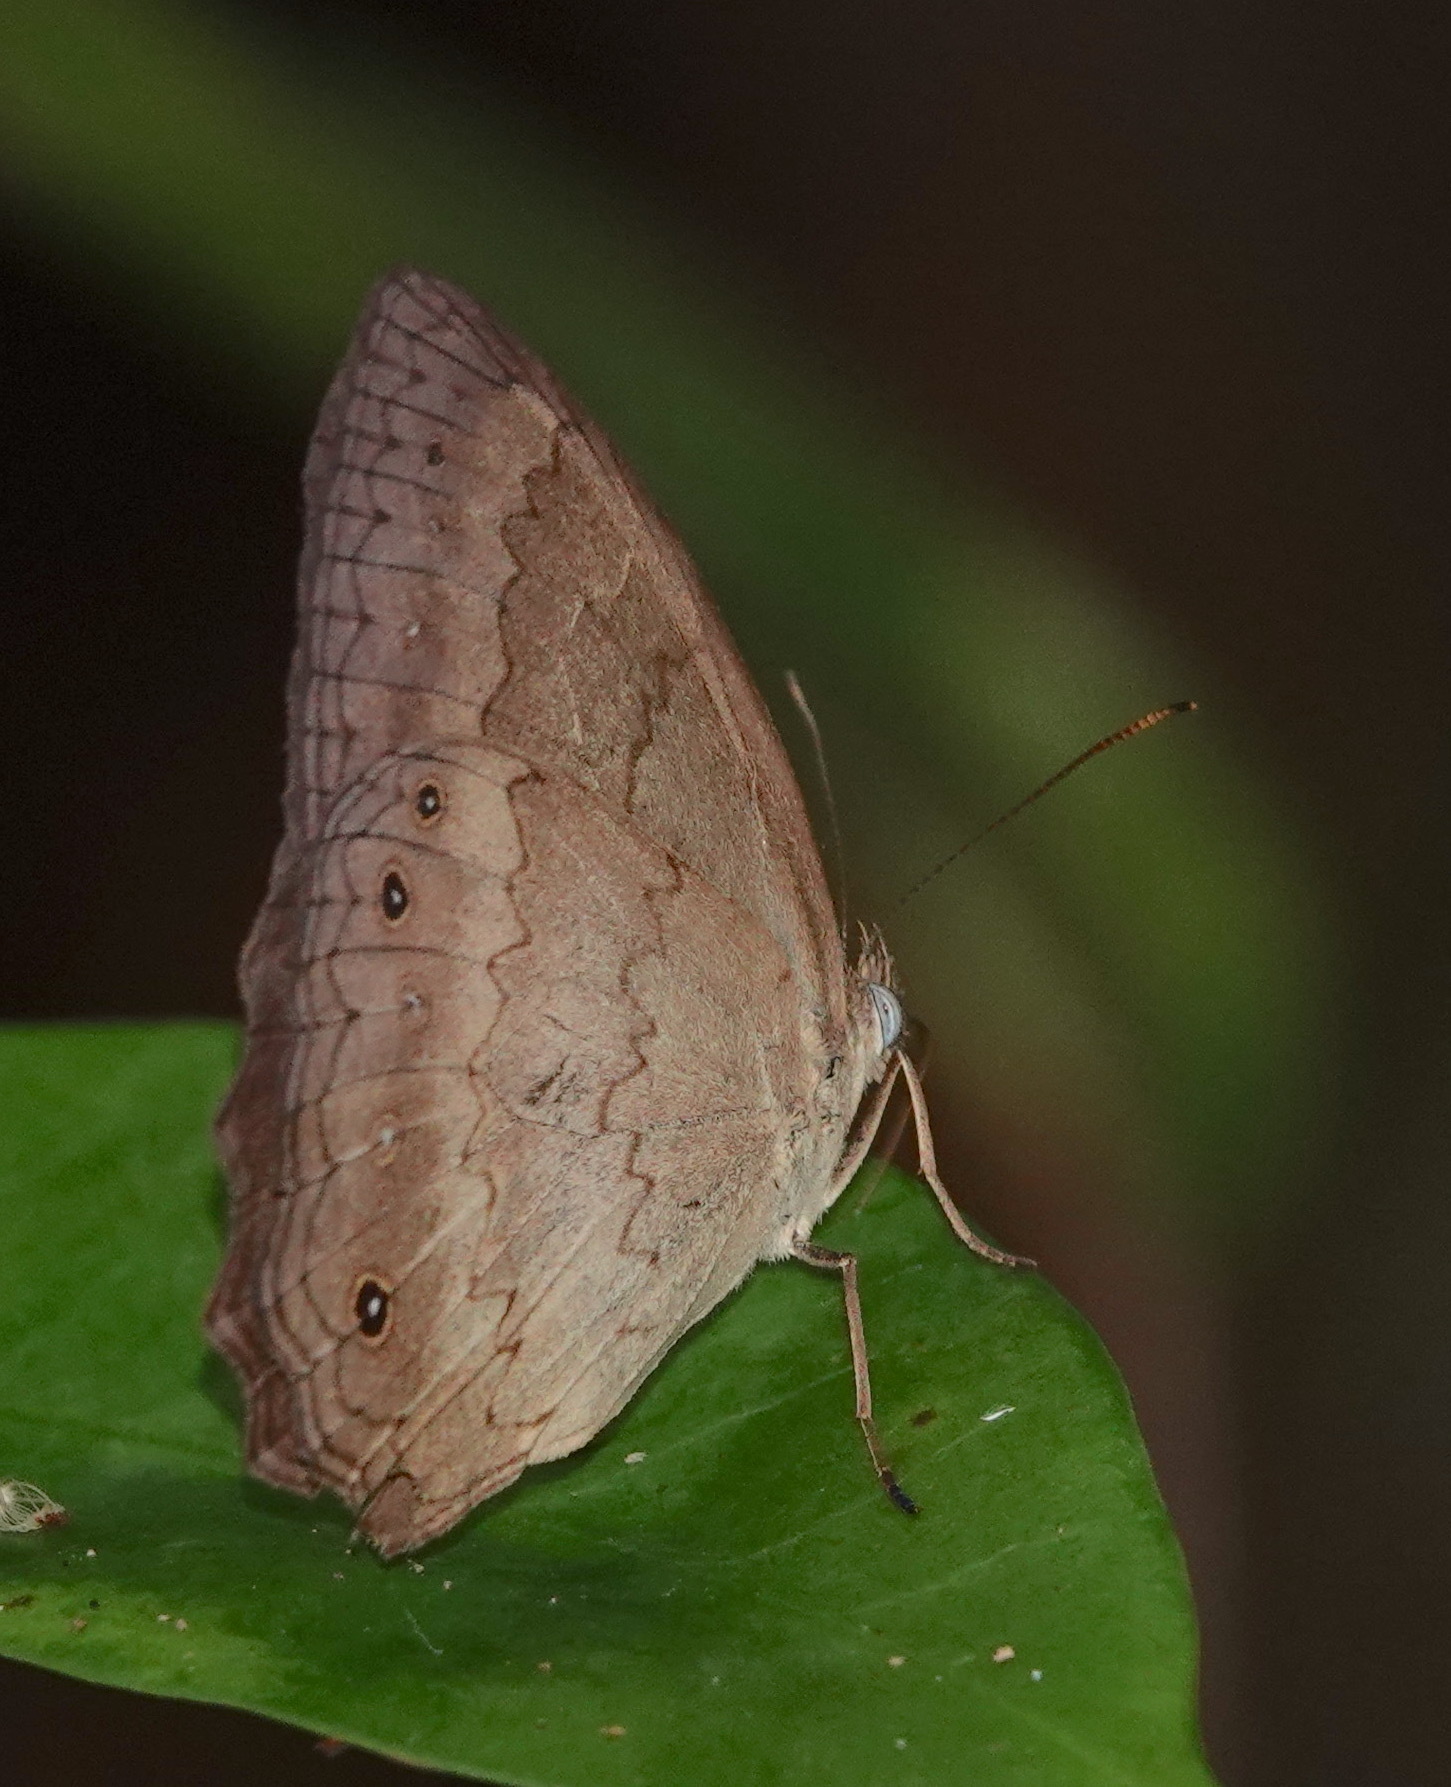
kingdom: Animalia
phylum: Arthropoda
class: Insecta
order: Lepidoptera
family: Nymphalidae
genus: Sepona
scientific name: Sepona punctata
